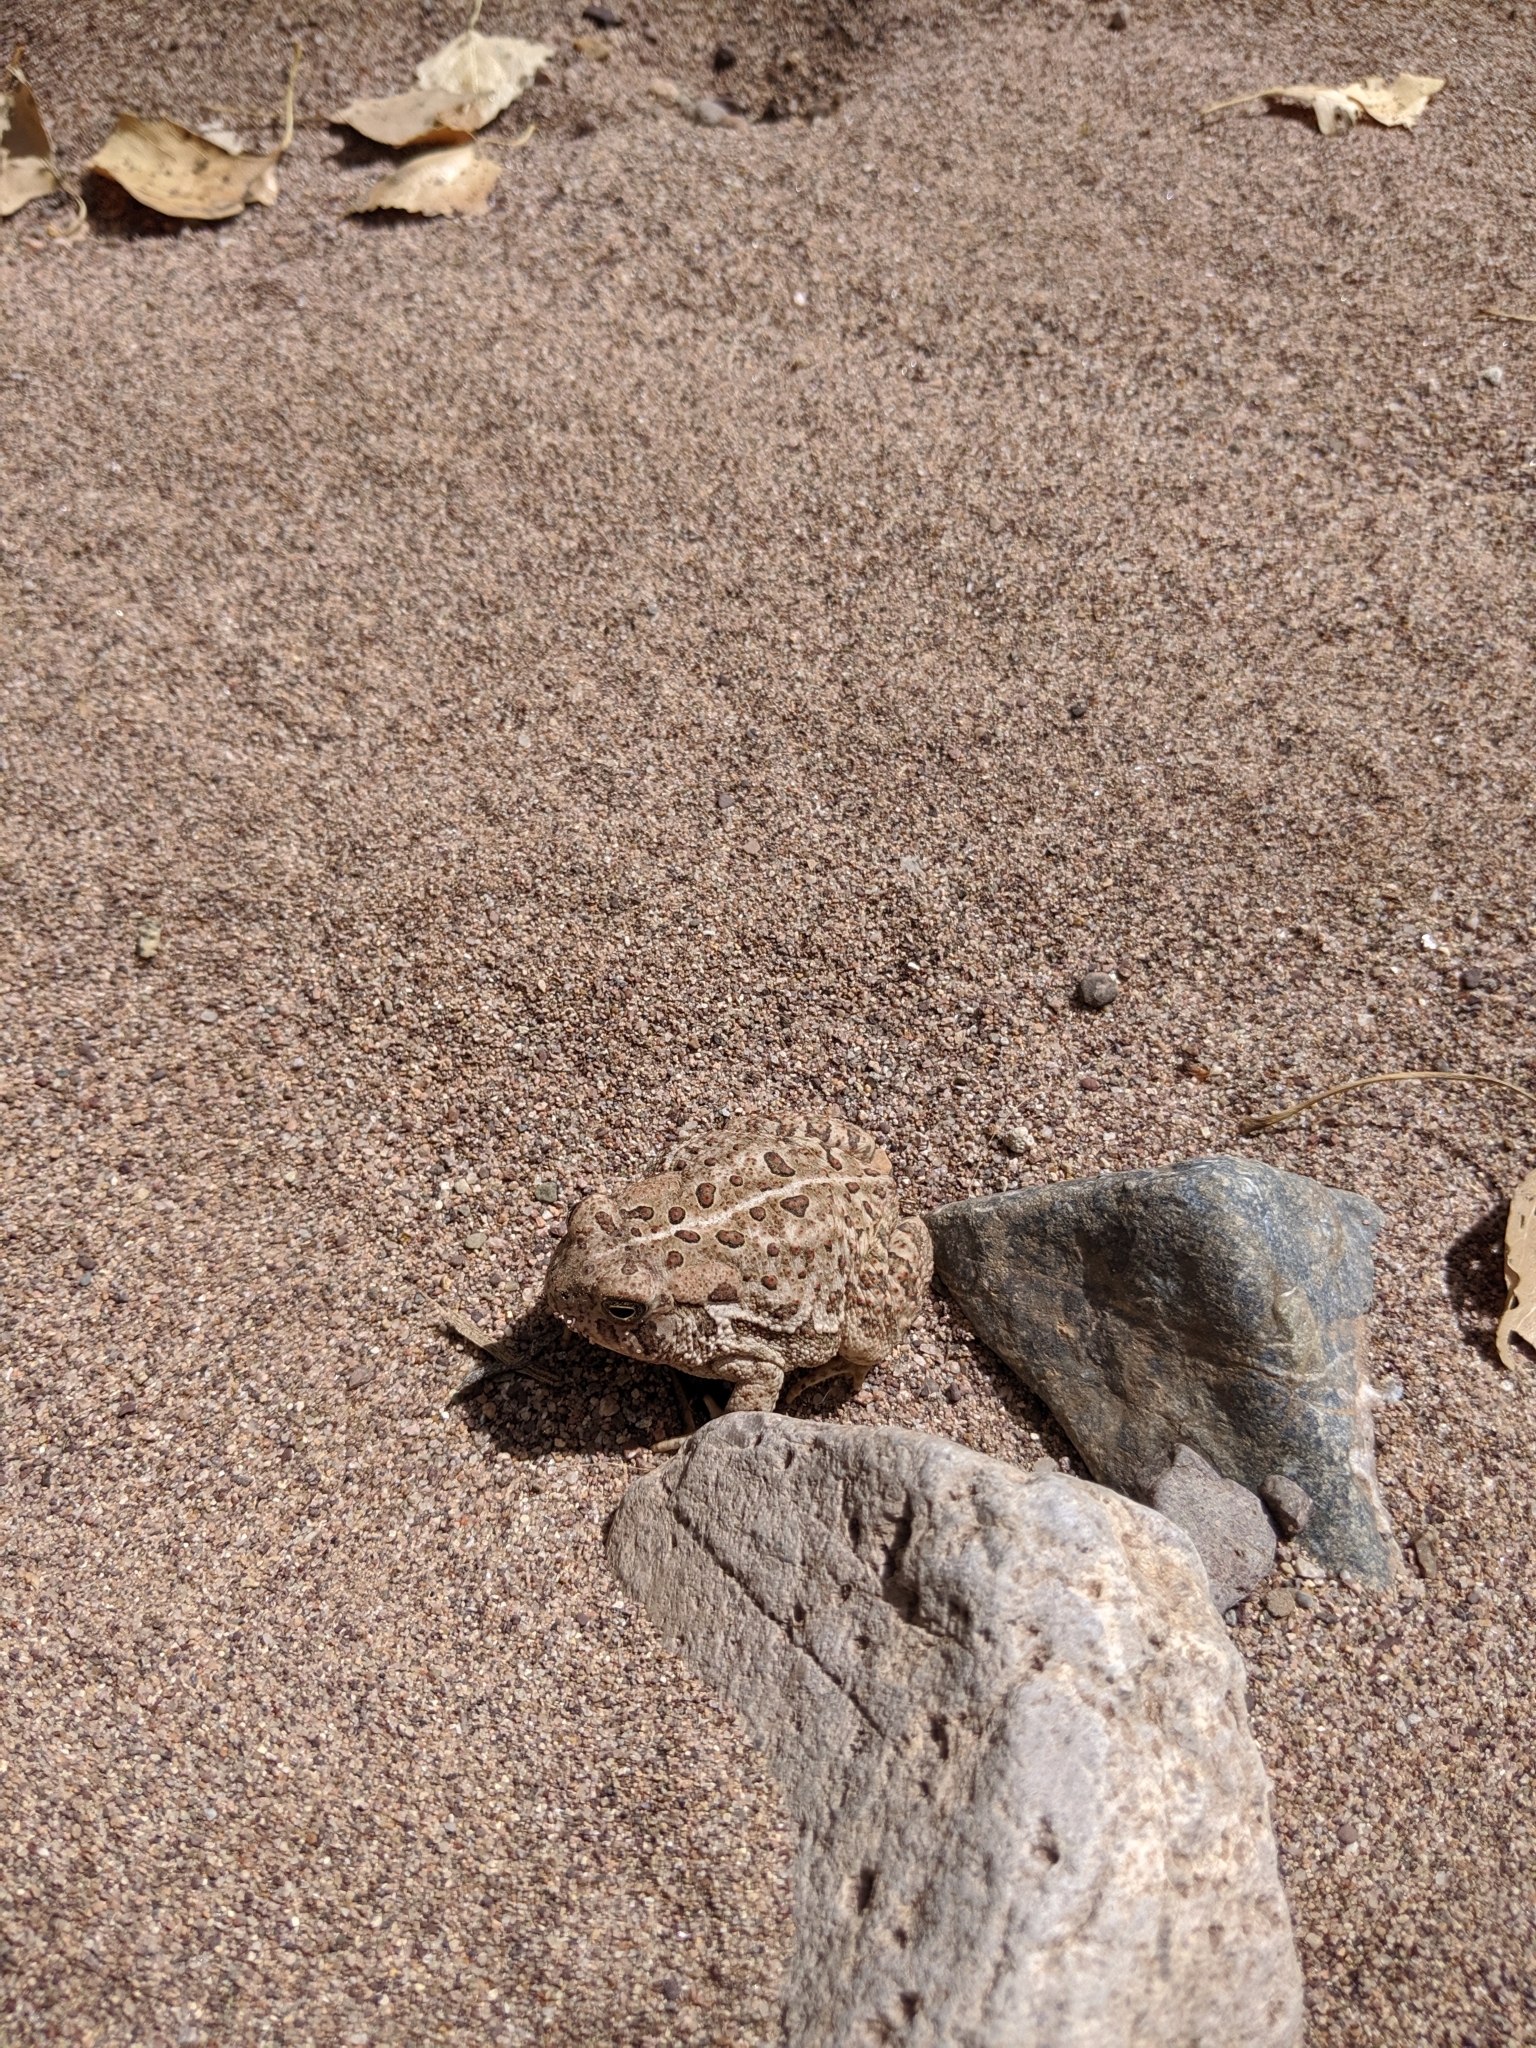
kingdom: Animalia
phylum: Chordata
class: Amphibia
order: Anura
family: Bufonidae
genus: Anaxyrus
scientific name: Anaxyrus woodhousii
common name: Woodhouse's toad
